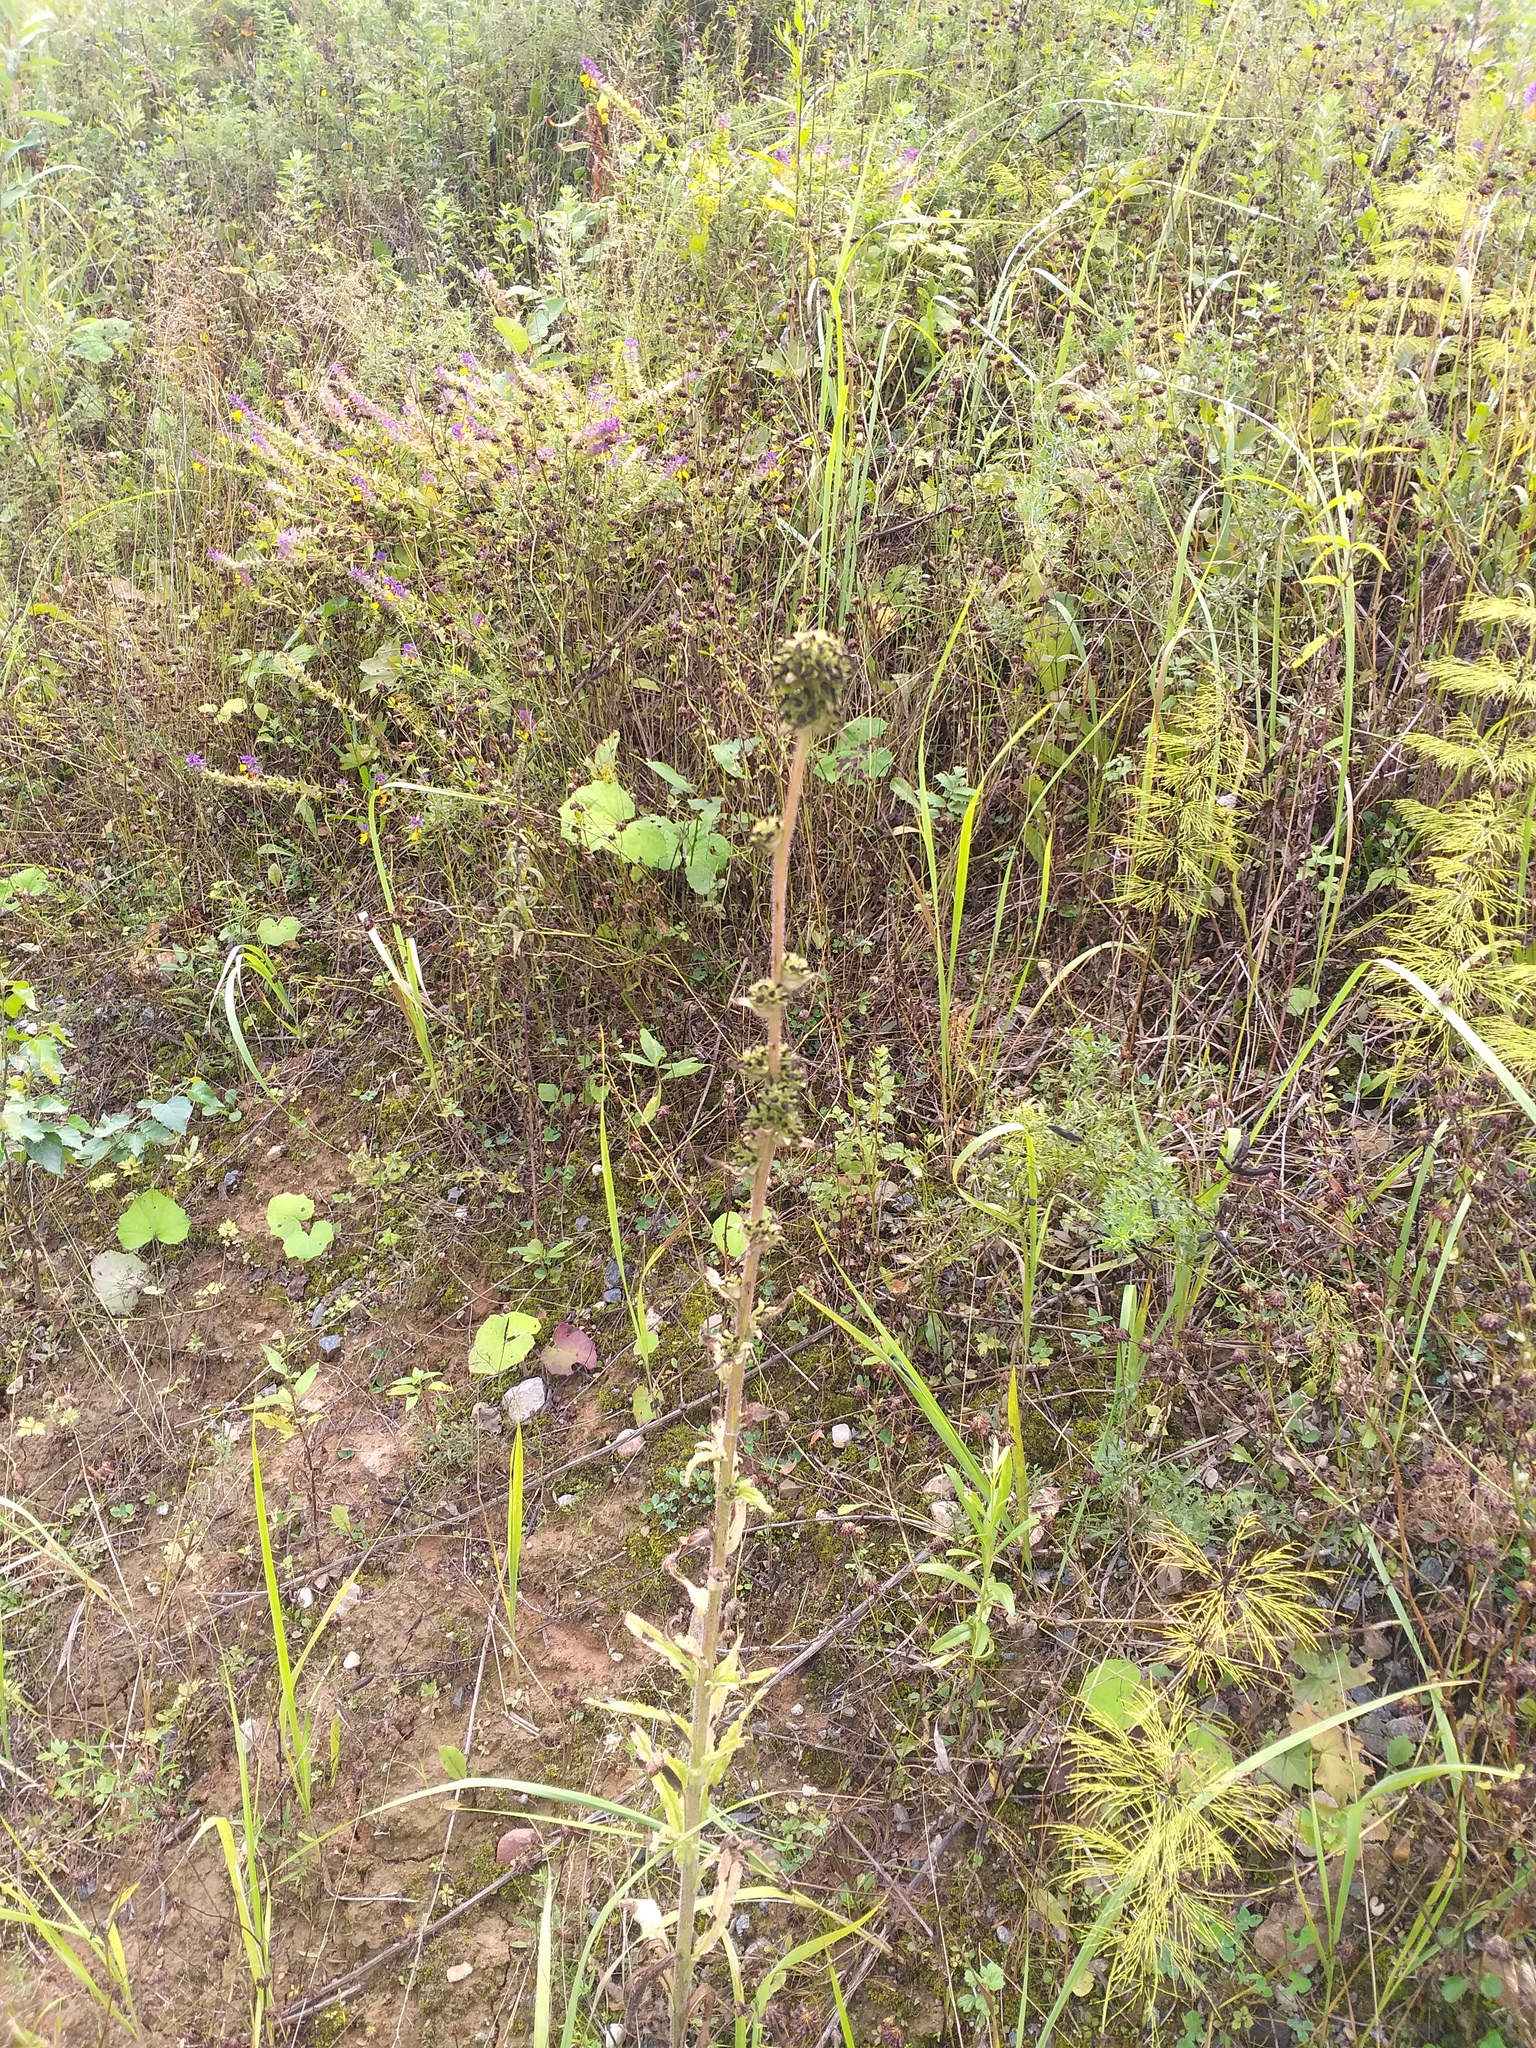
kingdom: Plantae
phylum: Tracheophyta
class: Magnoliopsida
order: Asterales
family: Campanulaceae
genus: Campanula
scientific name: Campanula cervicaria
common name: Bristly bellflower
